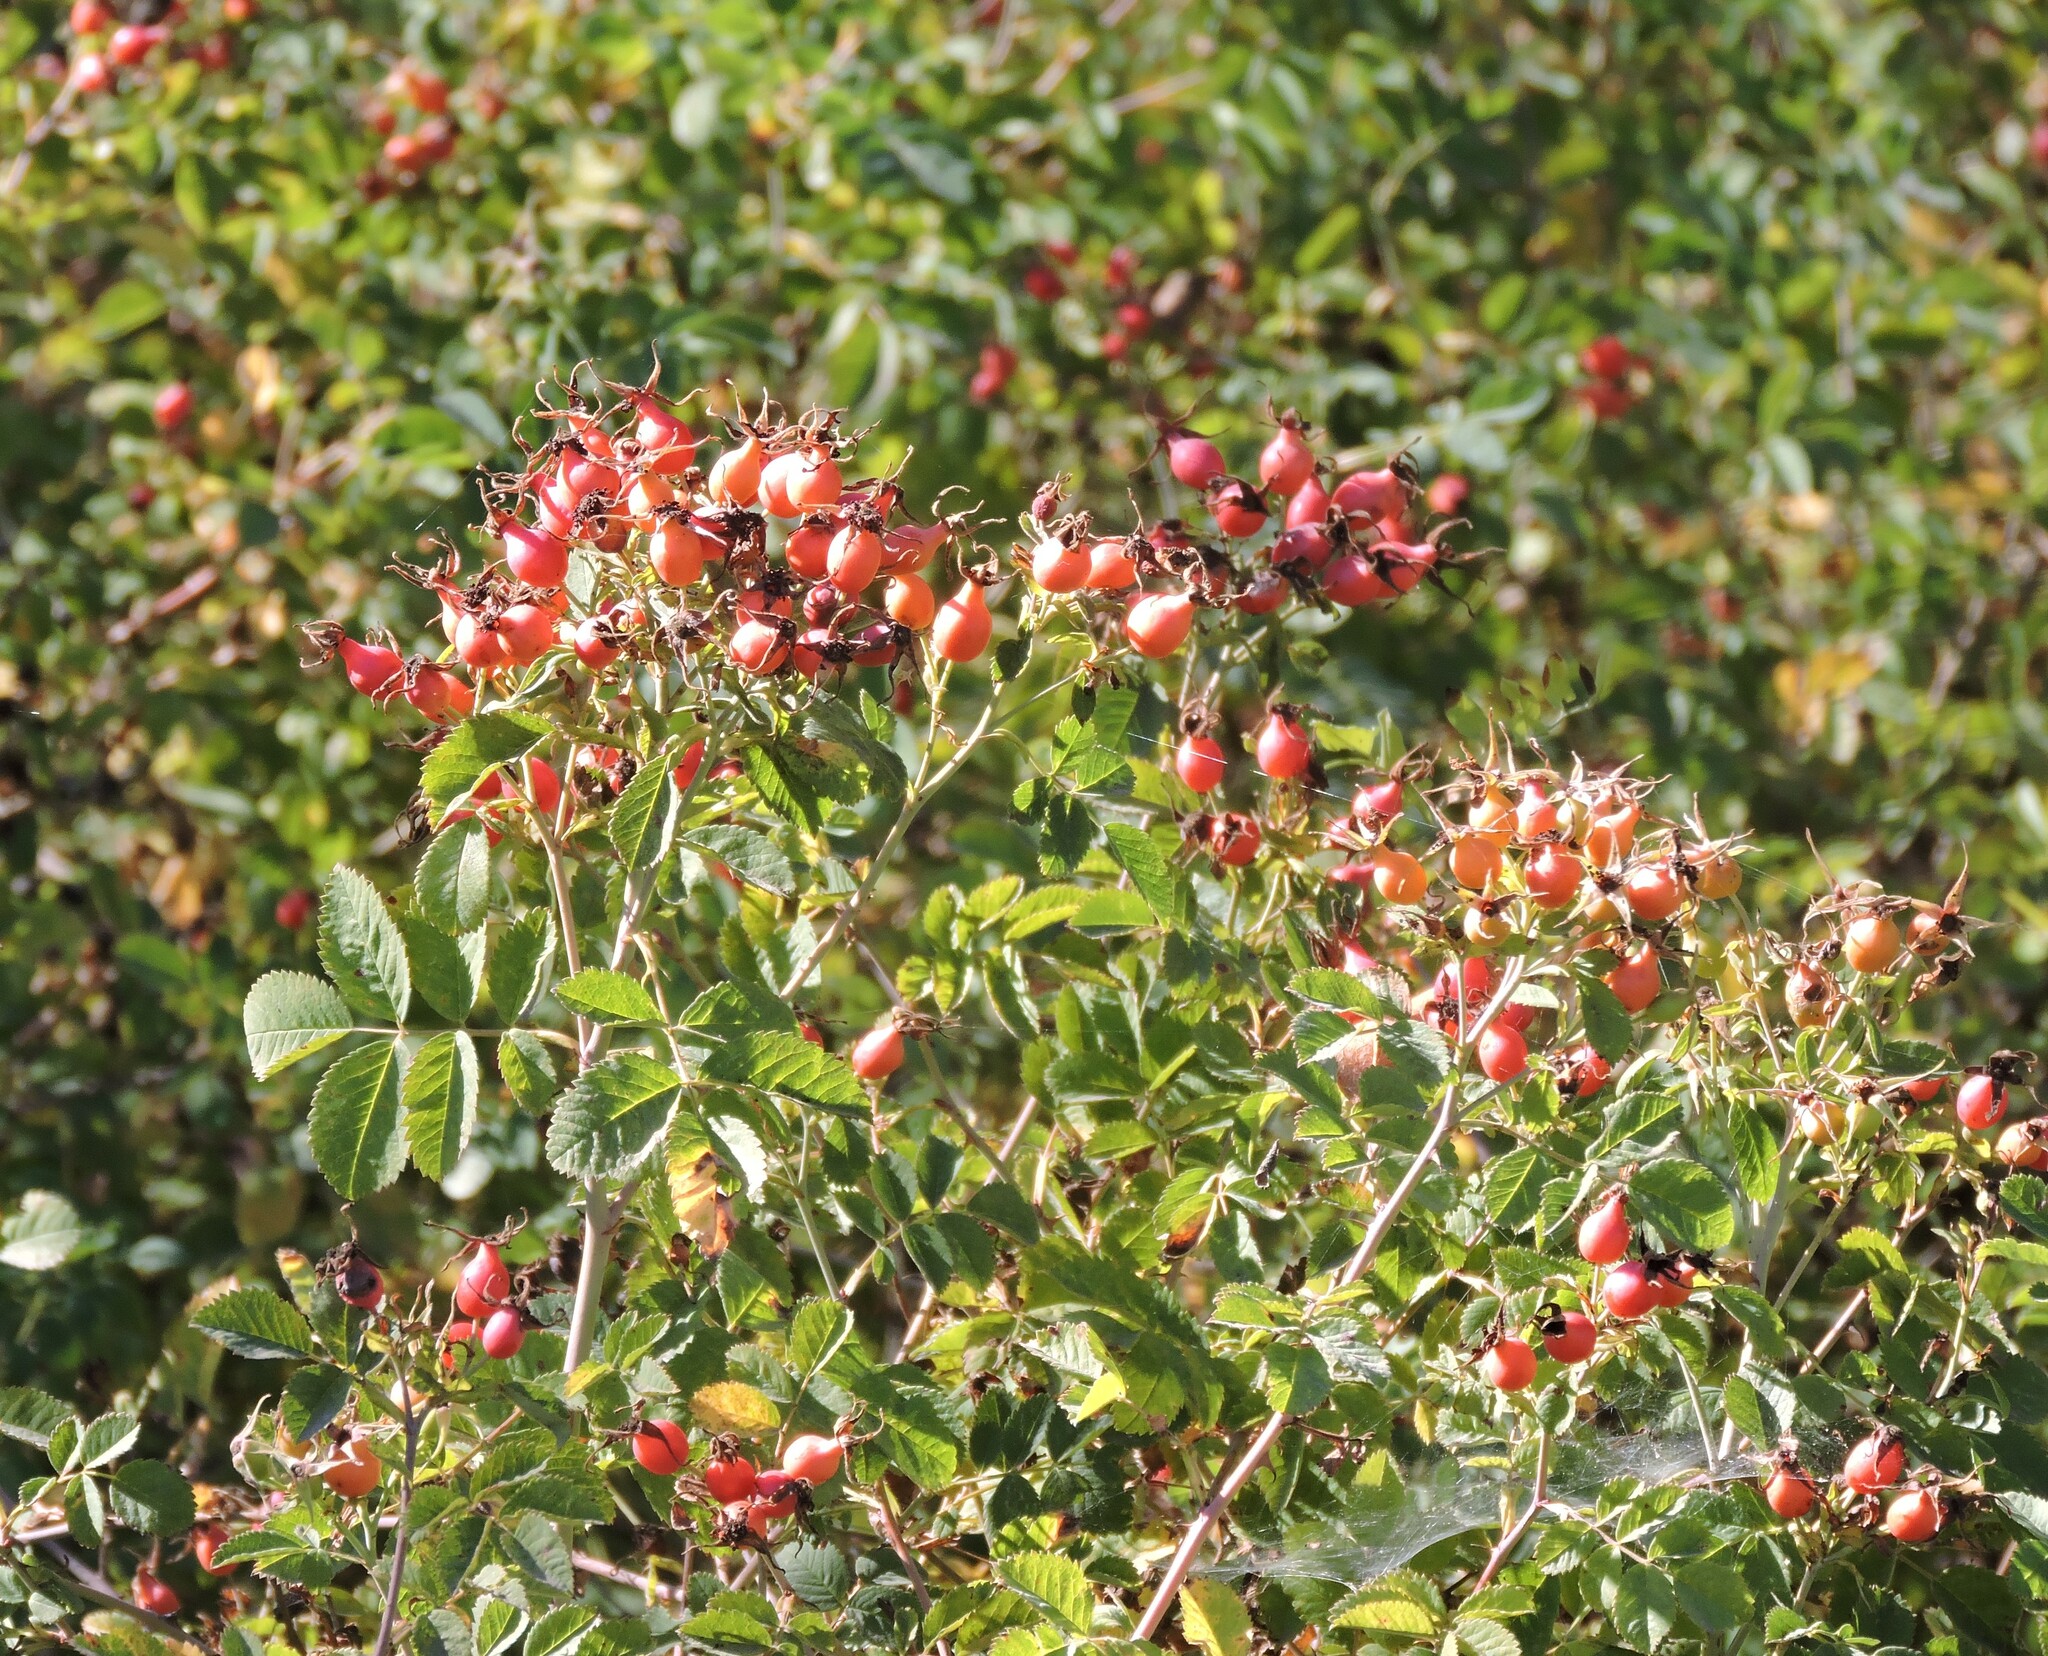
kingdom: Plantae
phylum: Tracheophyta
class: Magnoliopsida
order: Rosales
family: Rosaceae
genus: Rosa
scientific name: Rosa californica
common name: California rose
